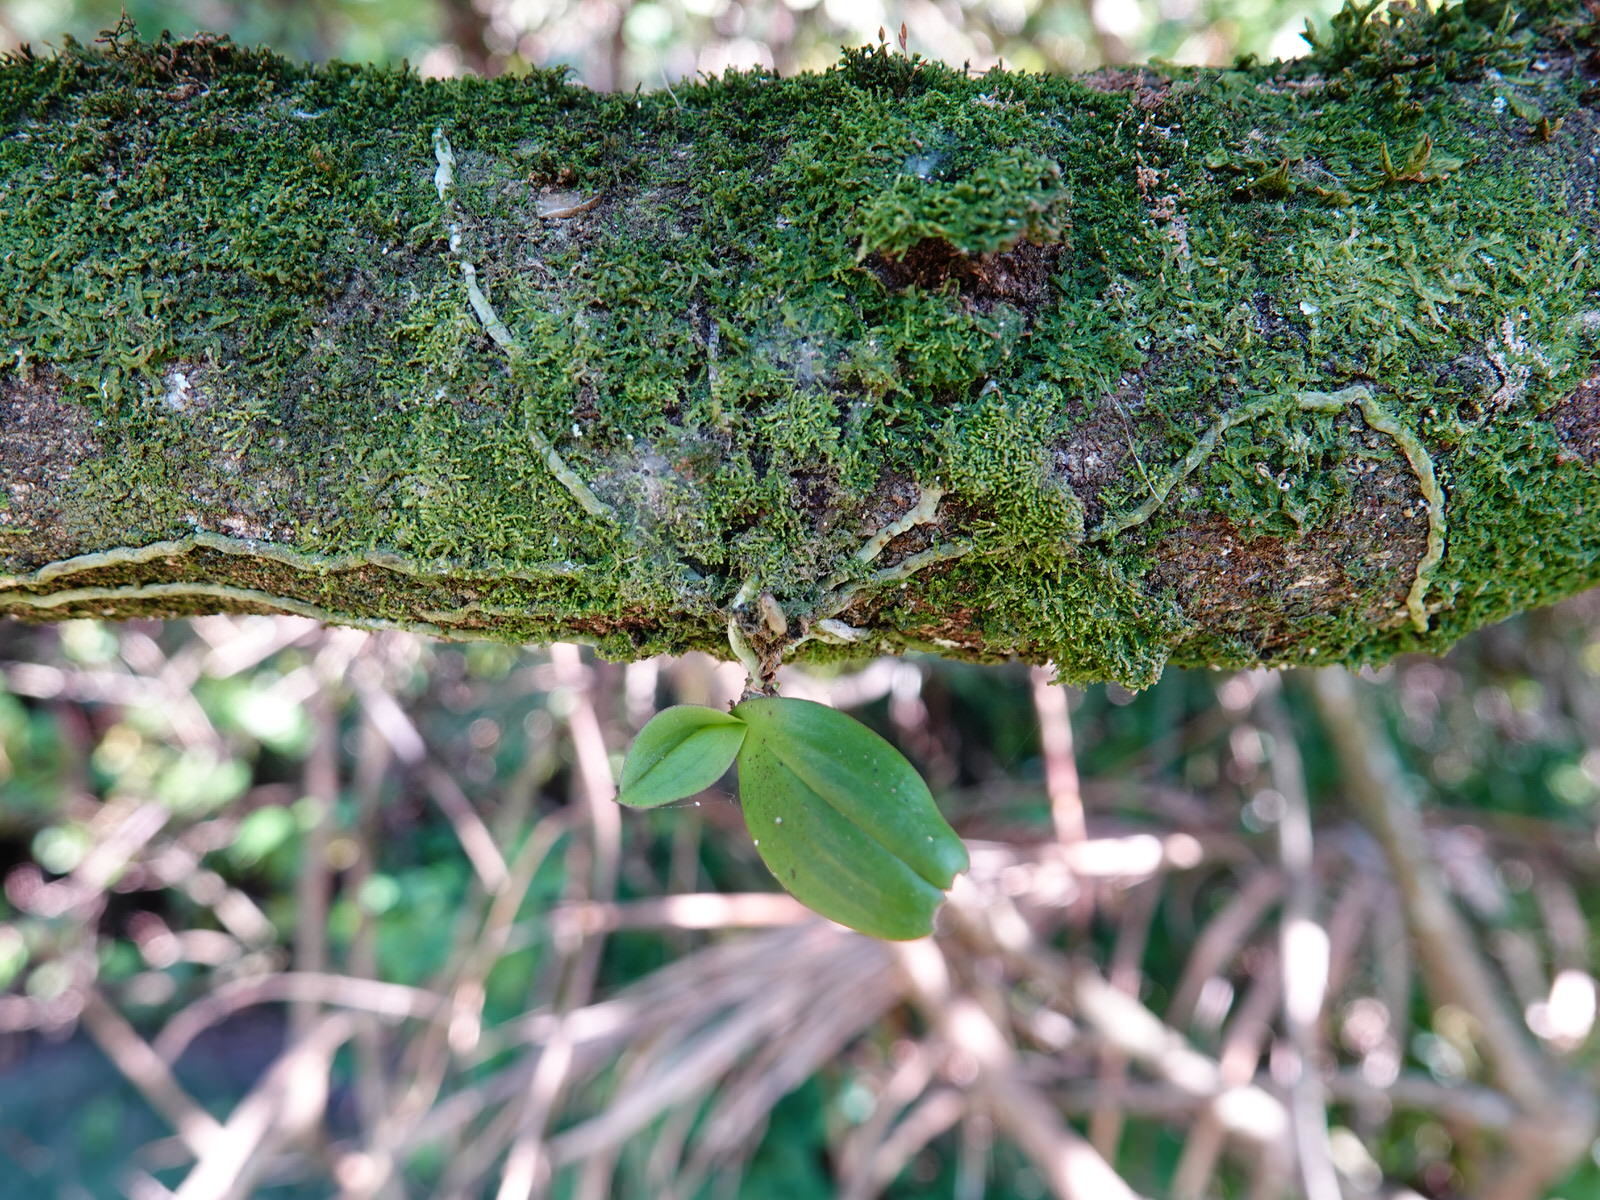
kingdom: Plantae
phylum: Tracheophyta
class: Liliopsida
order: Asparagales
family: Orchidaceae
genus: Drymoanthus
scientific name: Drymoanthus adversus
